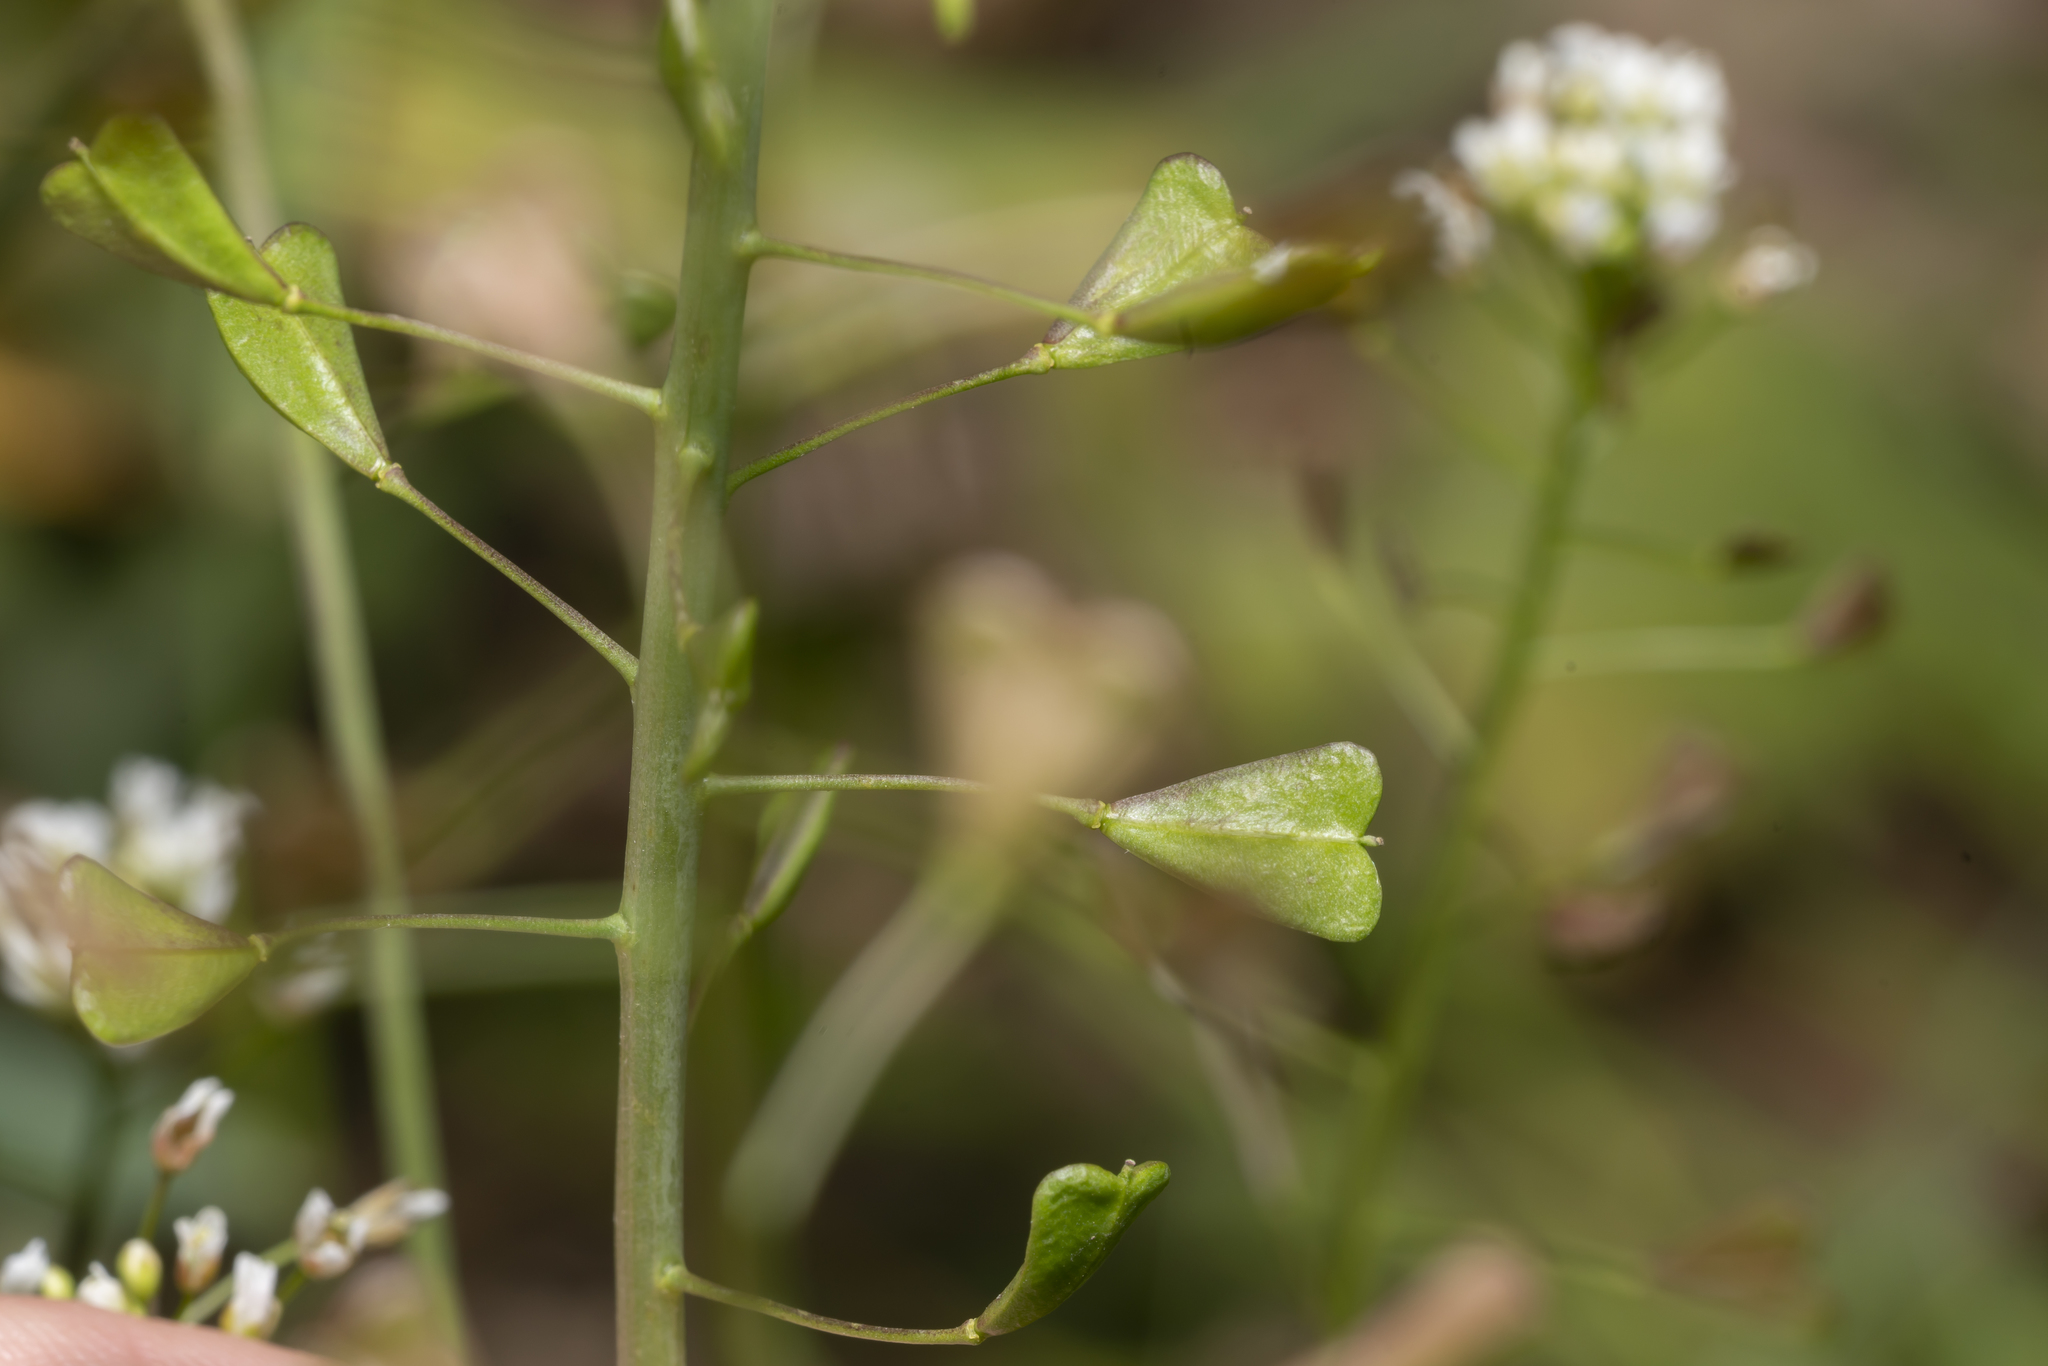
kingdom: Plantae
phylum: Tracheophyta
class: Magnoliopsida
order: Brassicales
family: Brassicaceae
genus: Capsella
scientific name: Capsella bursa-pastoris
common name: Shepherd's purse
